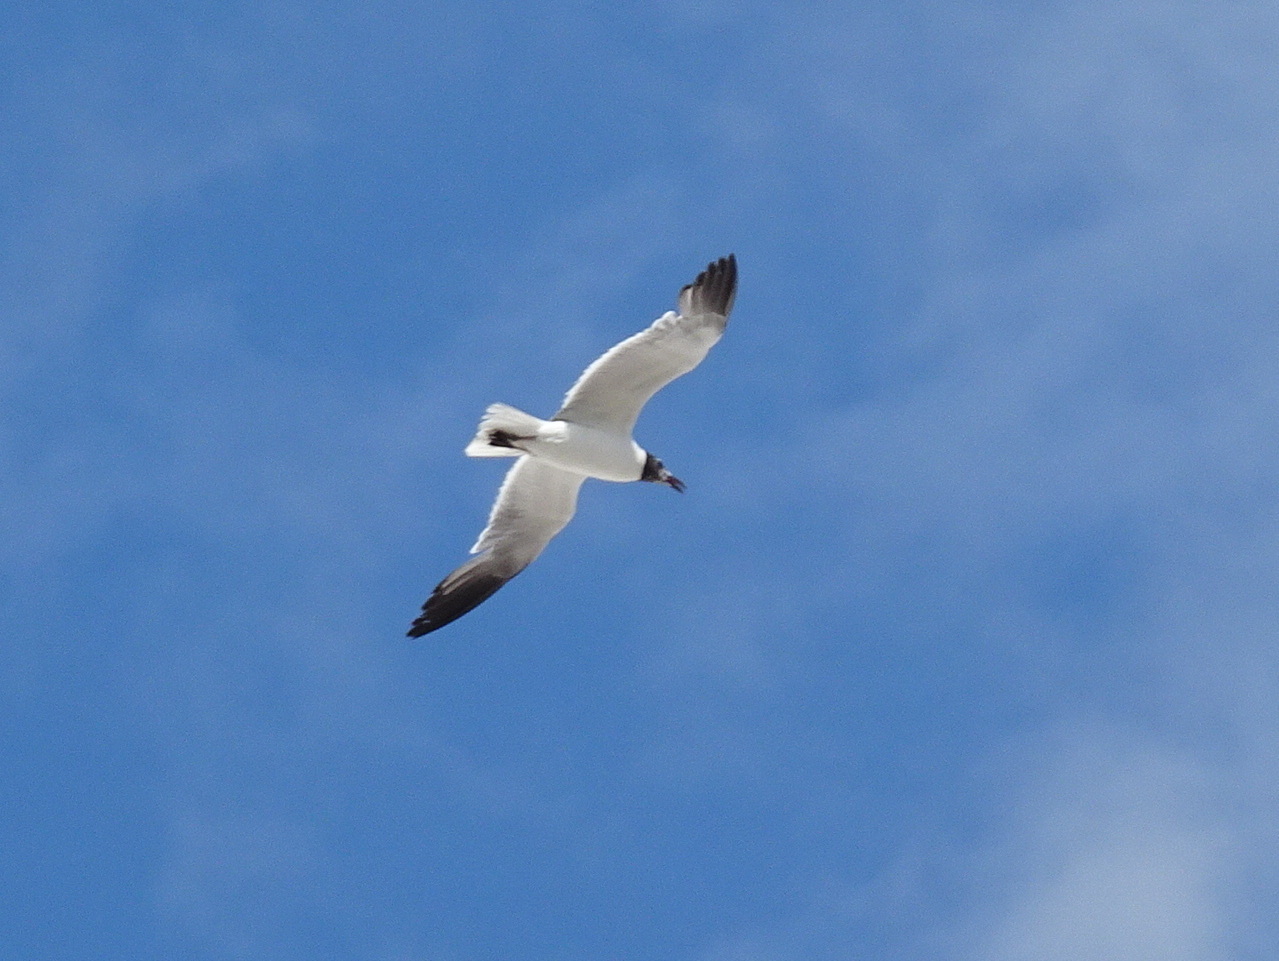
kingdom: Animalia
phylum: Chordata
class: Aves
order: Charadriiformes
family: Laridae
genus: Leucophaeus
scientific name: Leucophaeus atricilla
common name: Laughing gull
